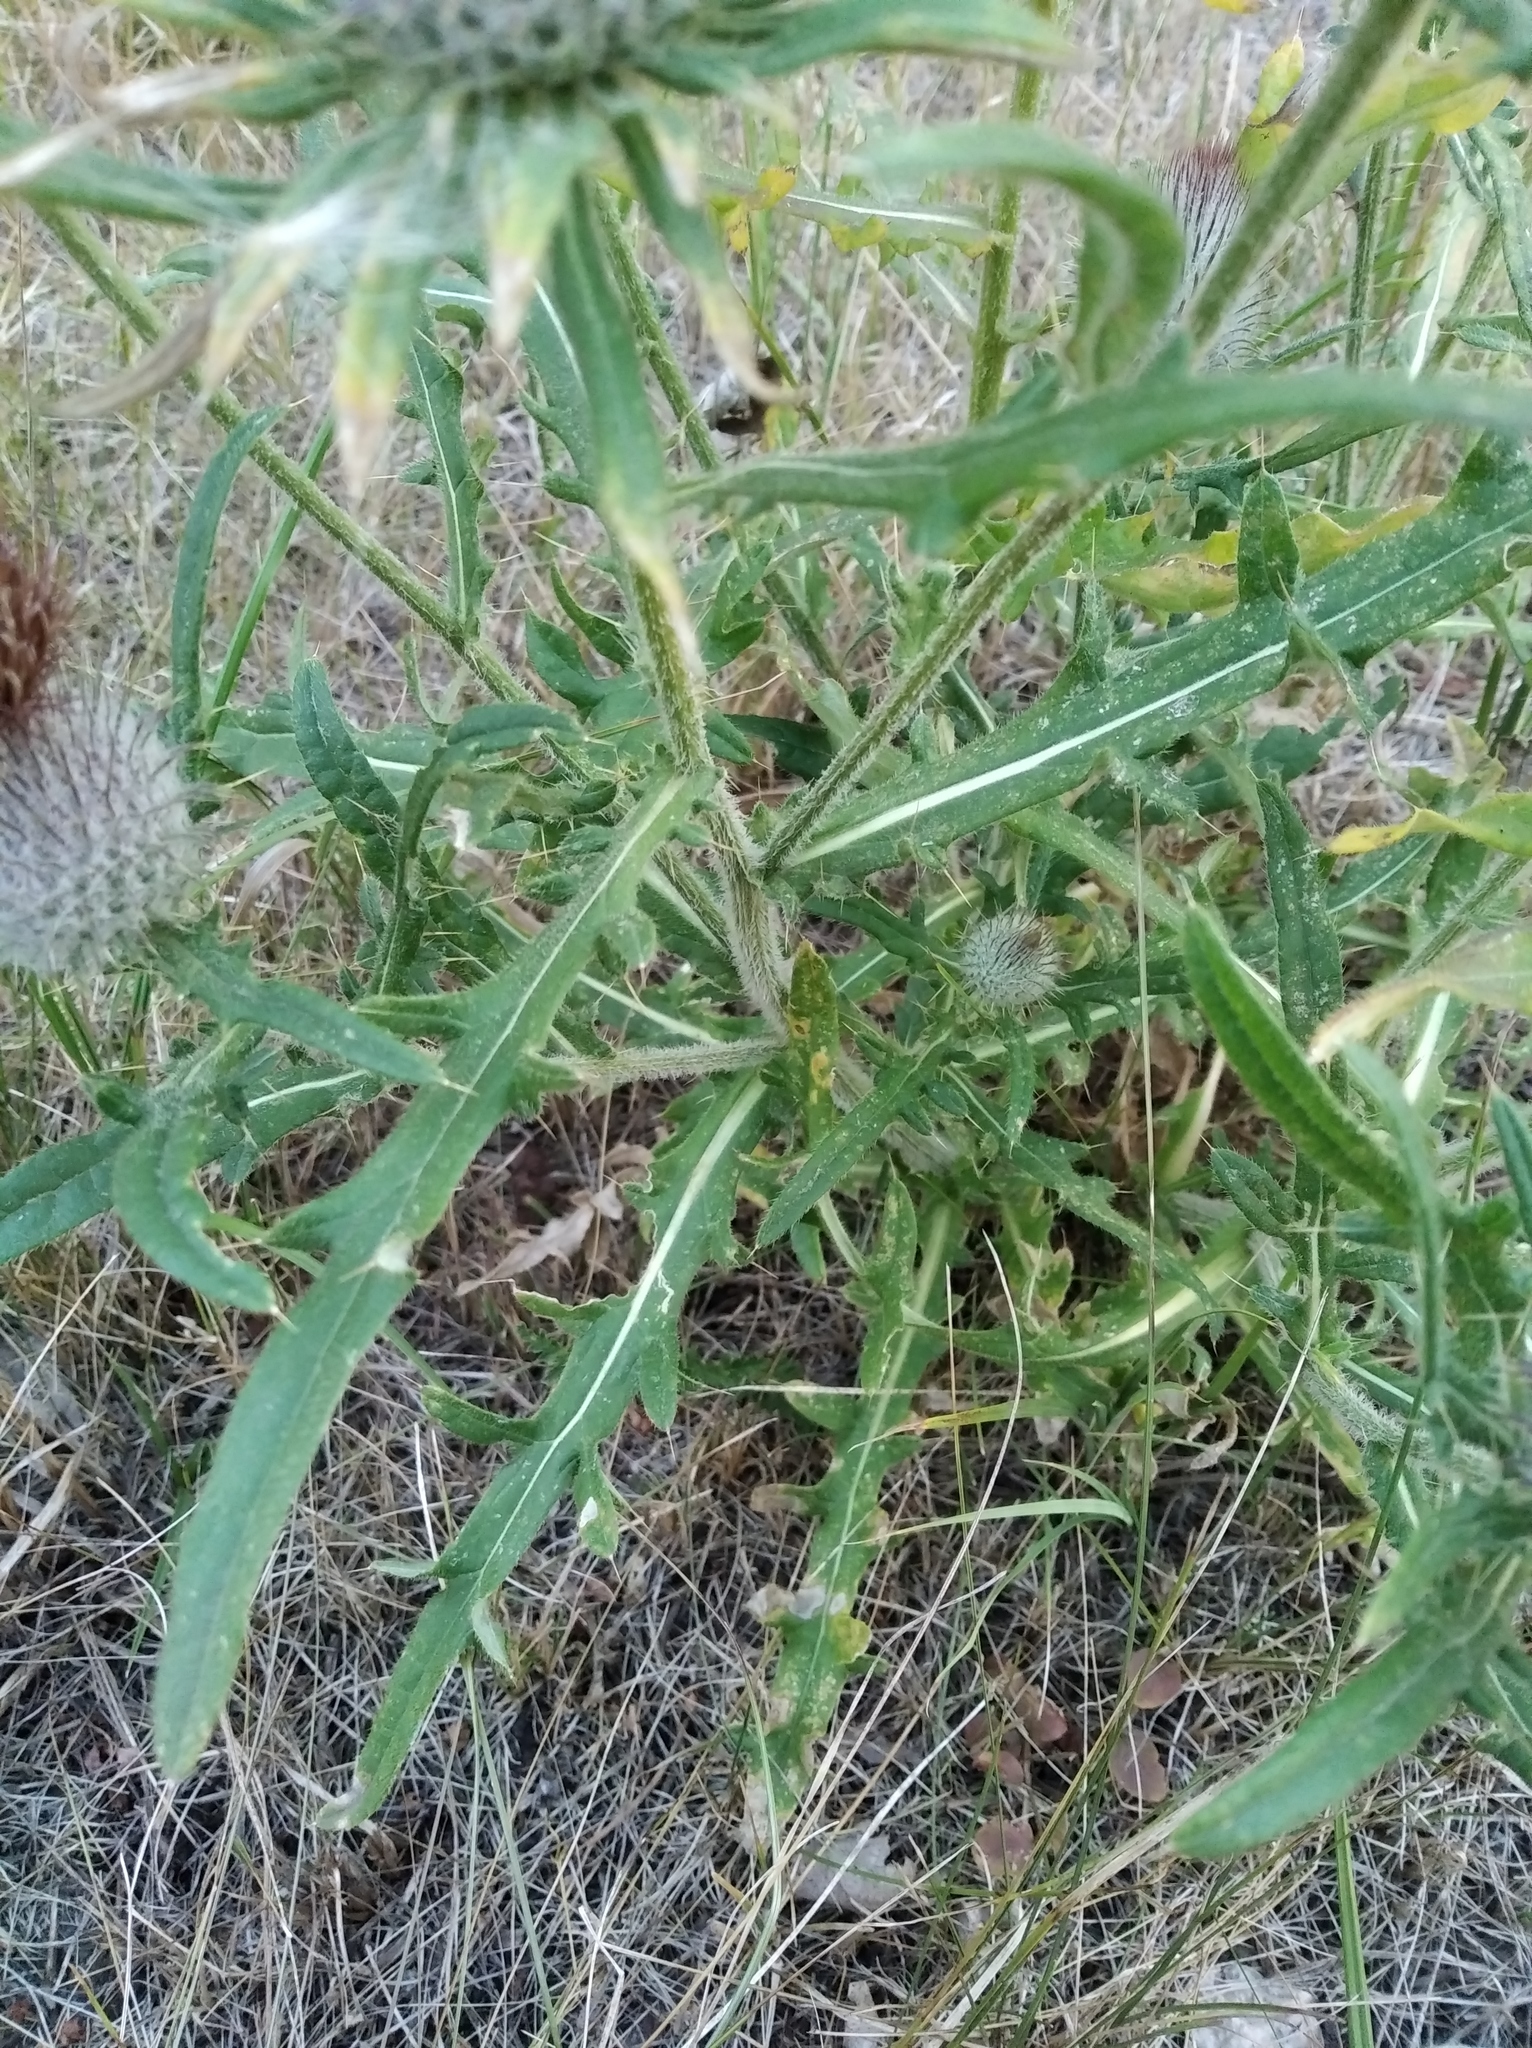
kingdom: Plantae
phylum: Tracheophyta
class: Magnoliopsida
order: Asterales
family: Asteraceae
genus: Lophiolepis
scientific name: Lophiolepis decussata
